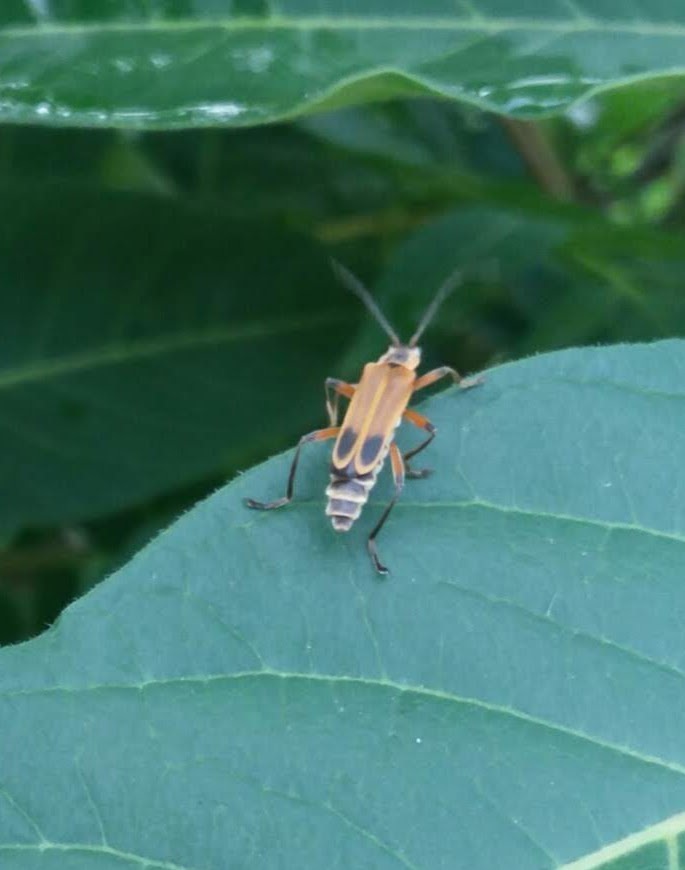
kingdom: Animalia
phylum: Arthropoda
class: Insecta
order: Coleoptera
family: Cantharidae
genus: Chauliognathus
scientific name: Chauliognathus marginatus
